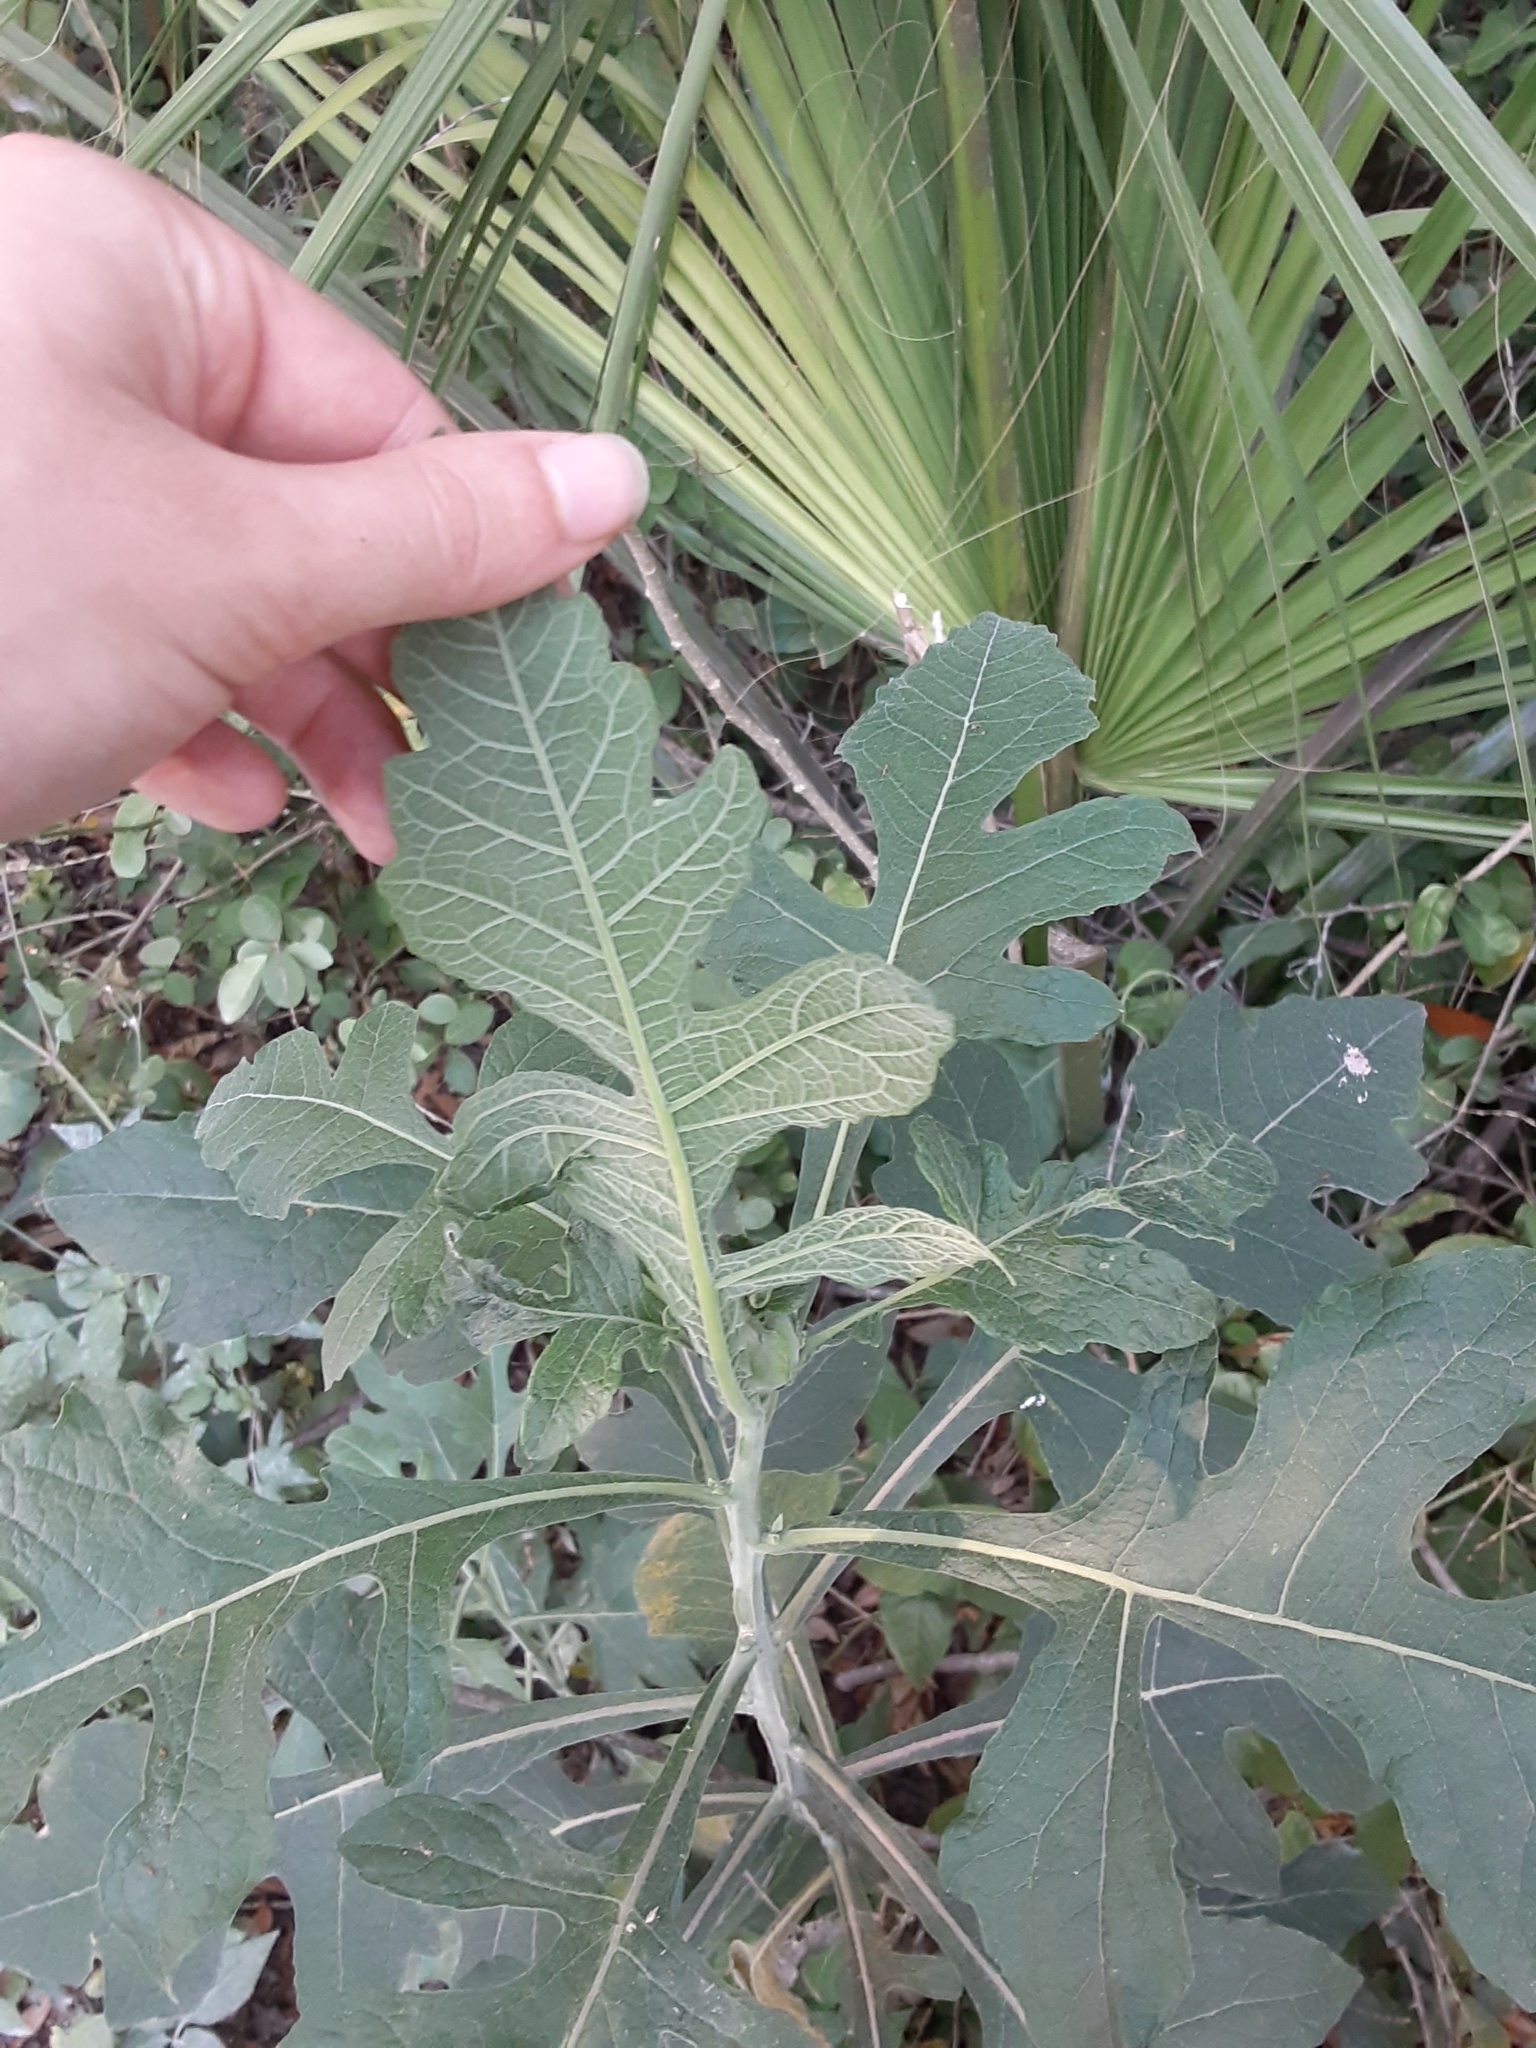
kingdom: Plantae
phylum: Tracheophyta
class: Magnoliopsida
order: Asterales
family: Asteraceae
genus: Verbesina
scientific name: Verbesina virginica
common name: Frostweed
